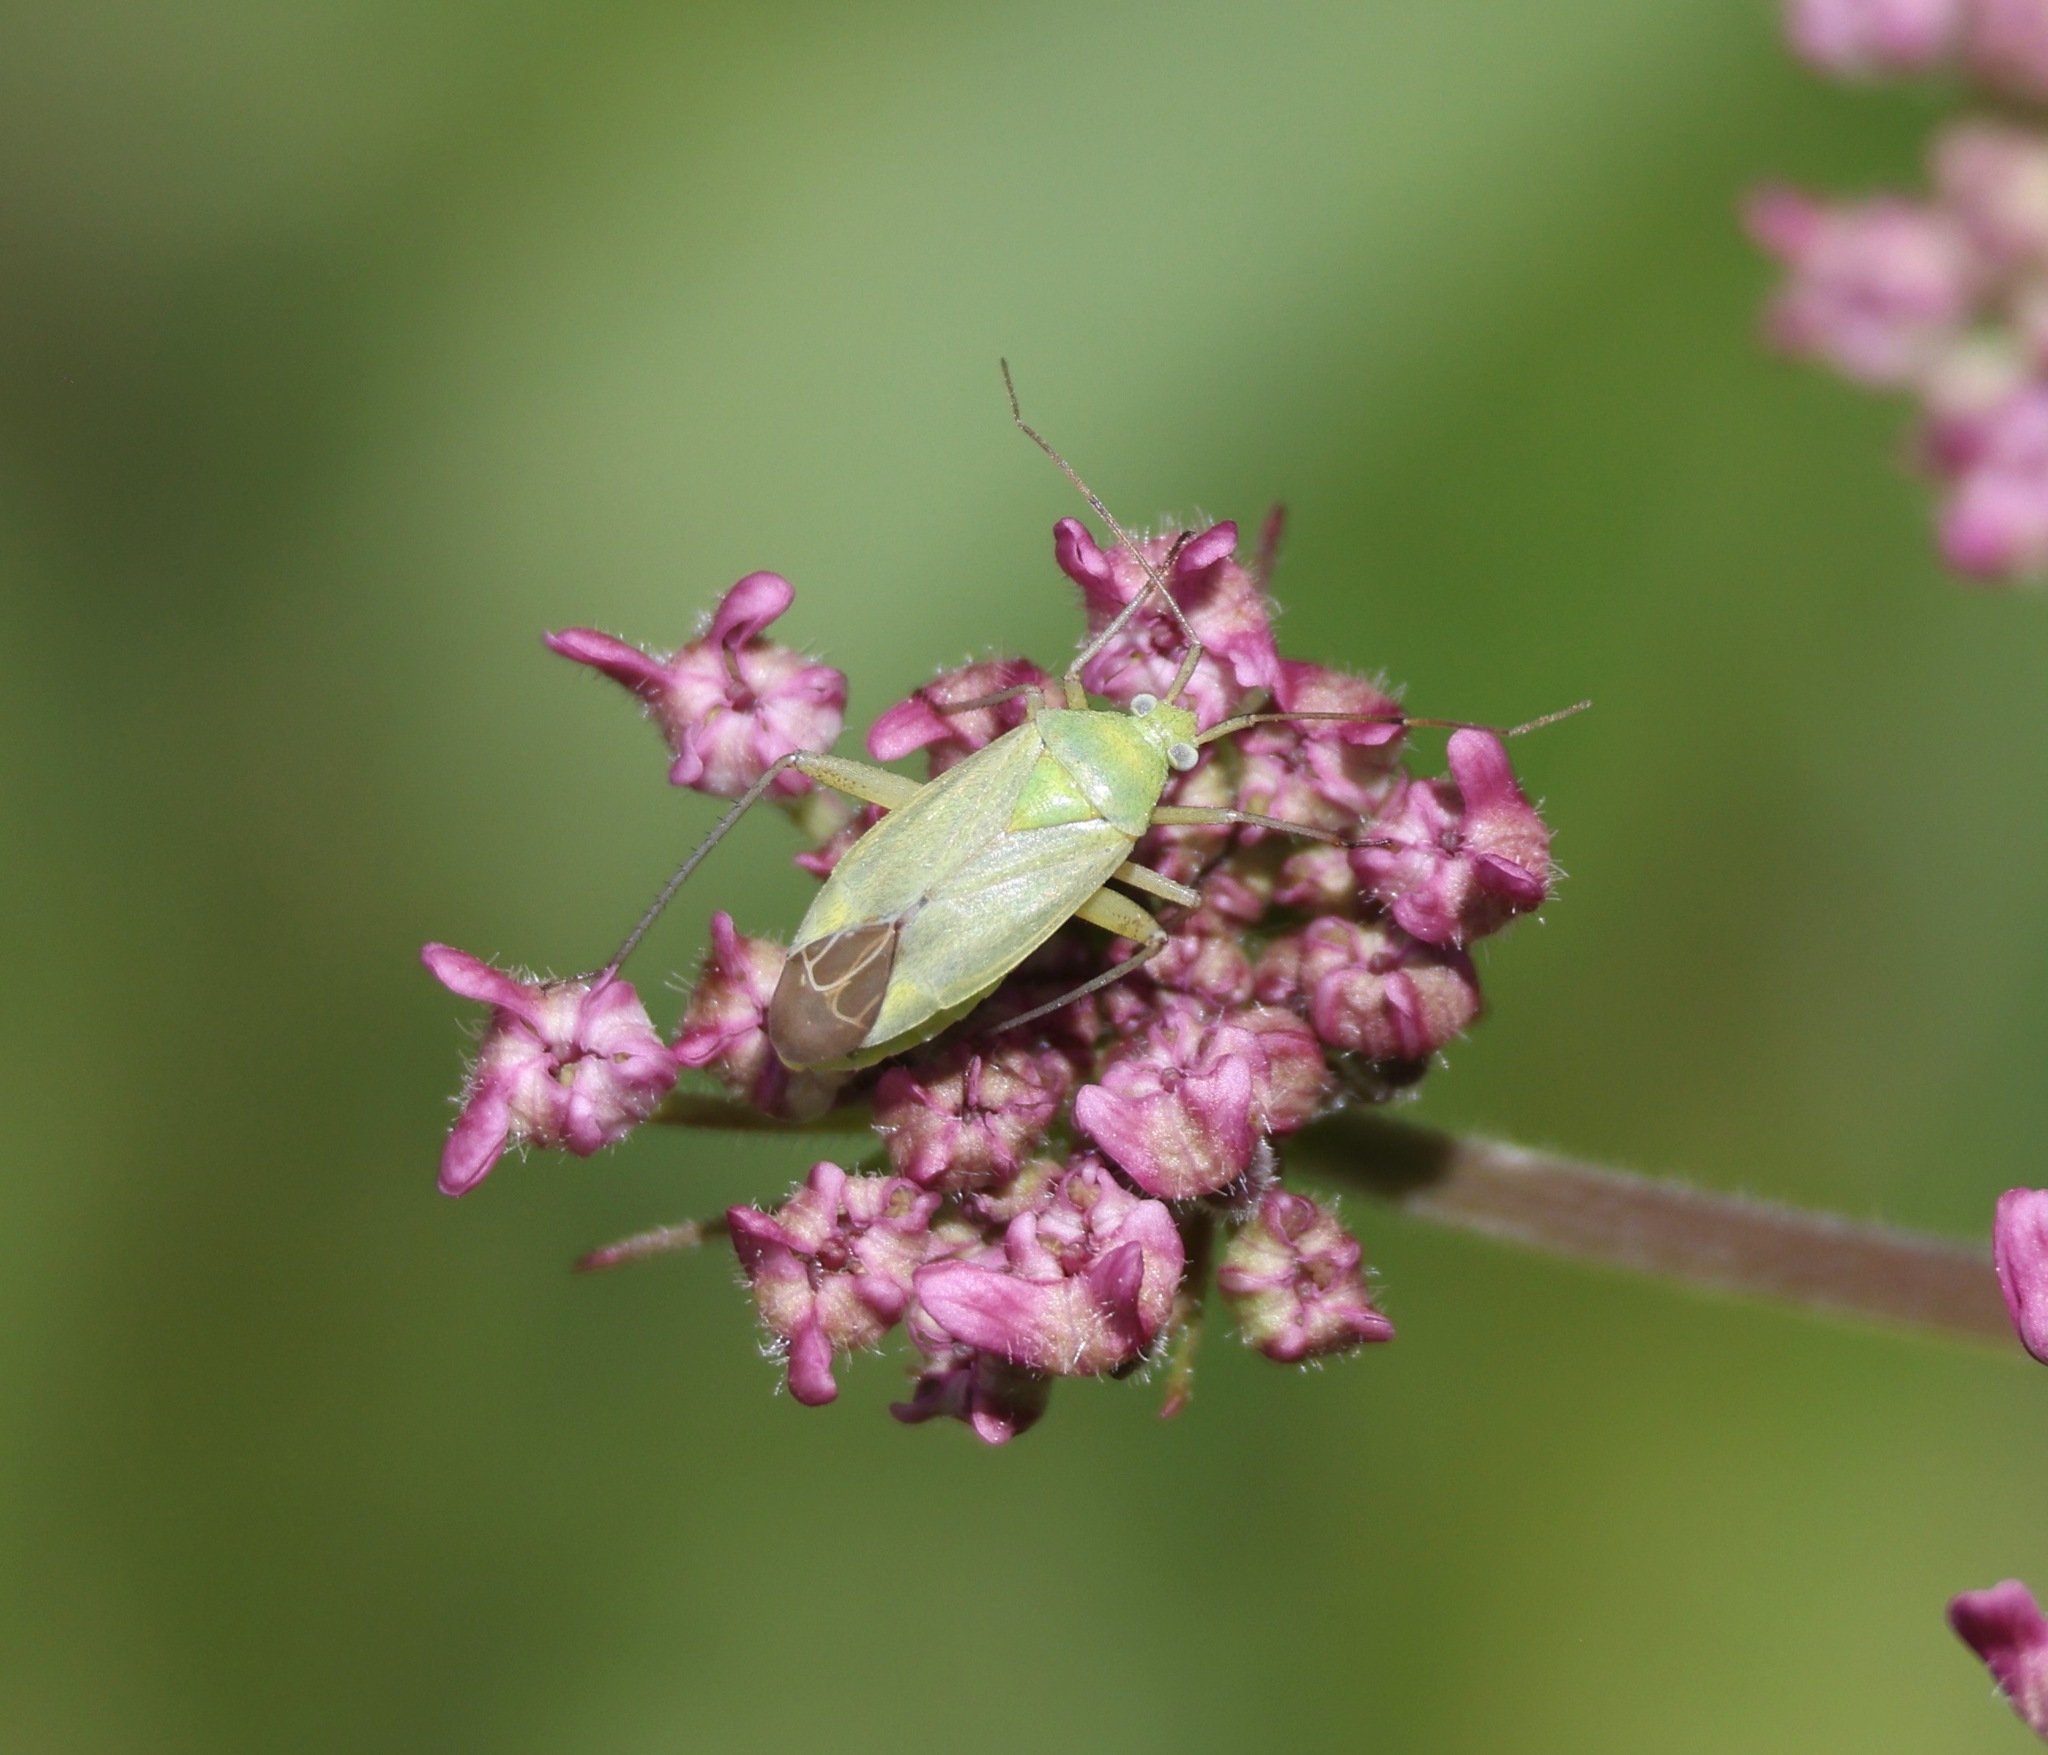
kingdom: Animalia
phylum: Arthropoda
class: Insecta
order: Hemiptera
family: Miridae
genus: Closterotomus
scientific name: Closterotomus norvegicus
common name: Plant bug
